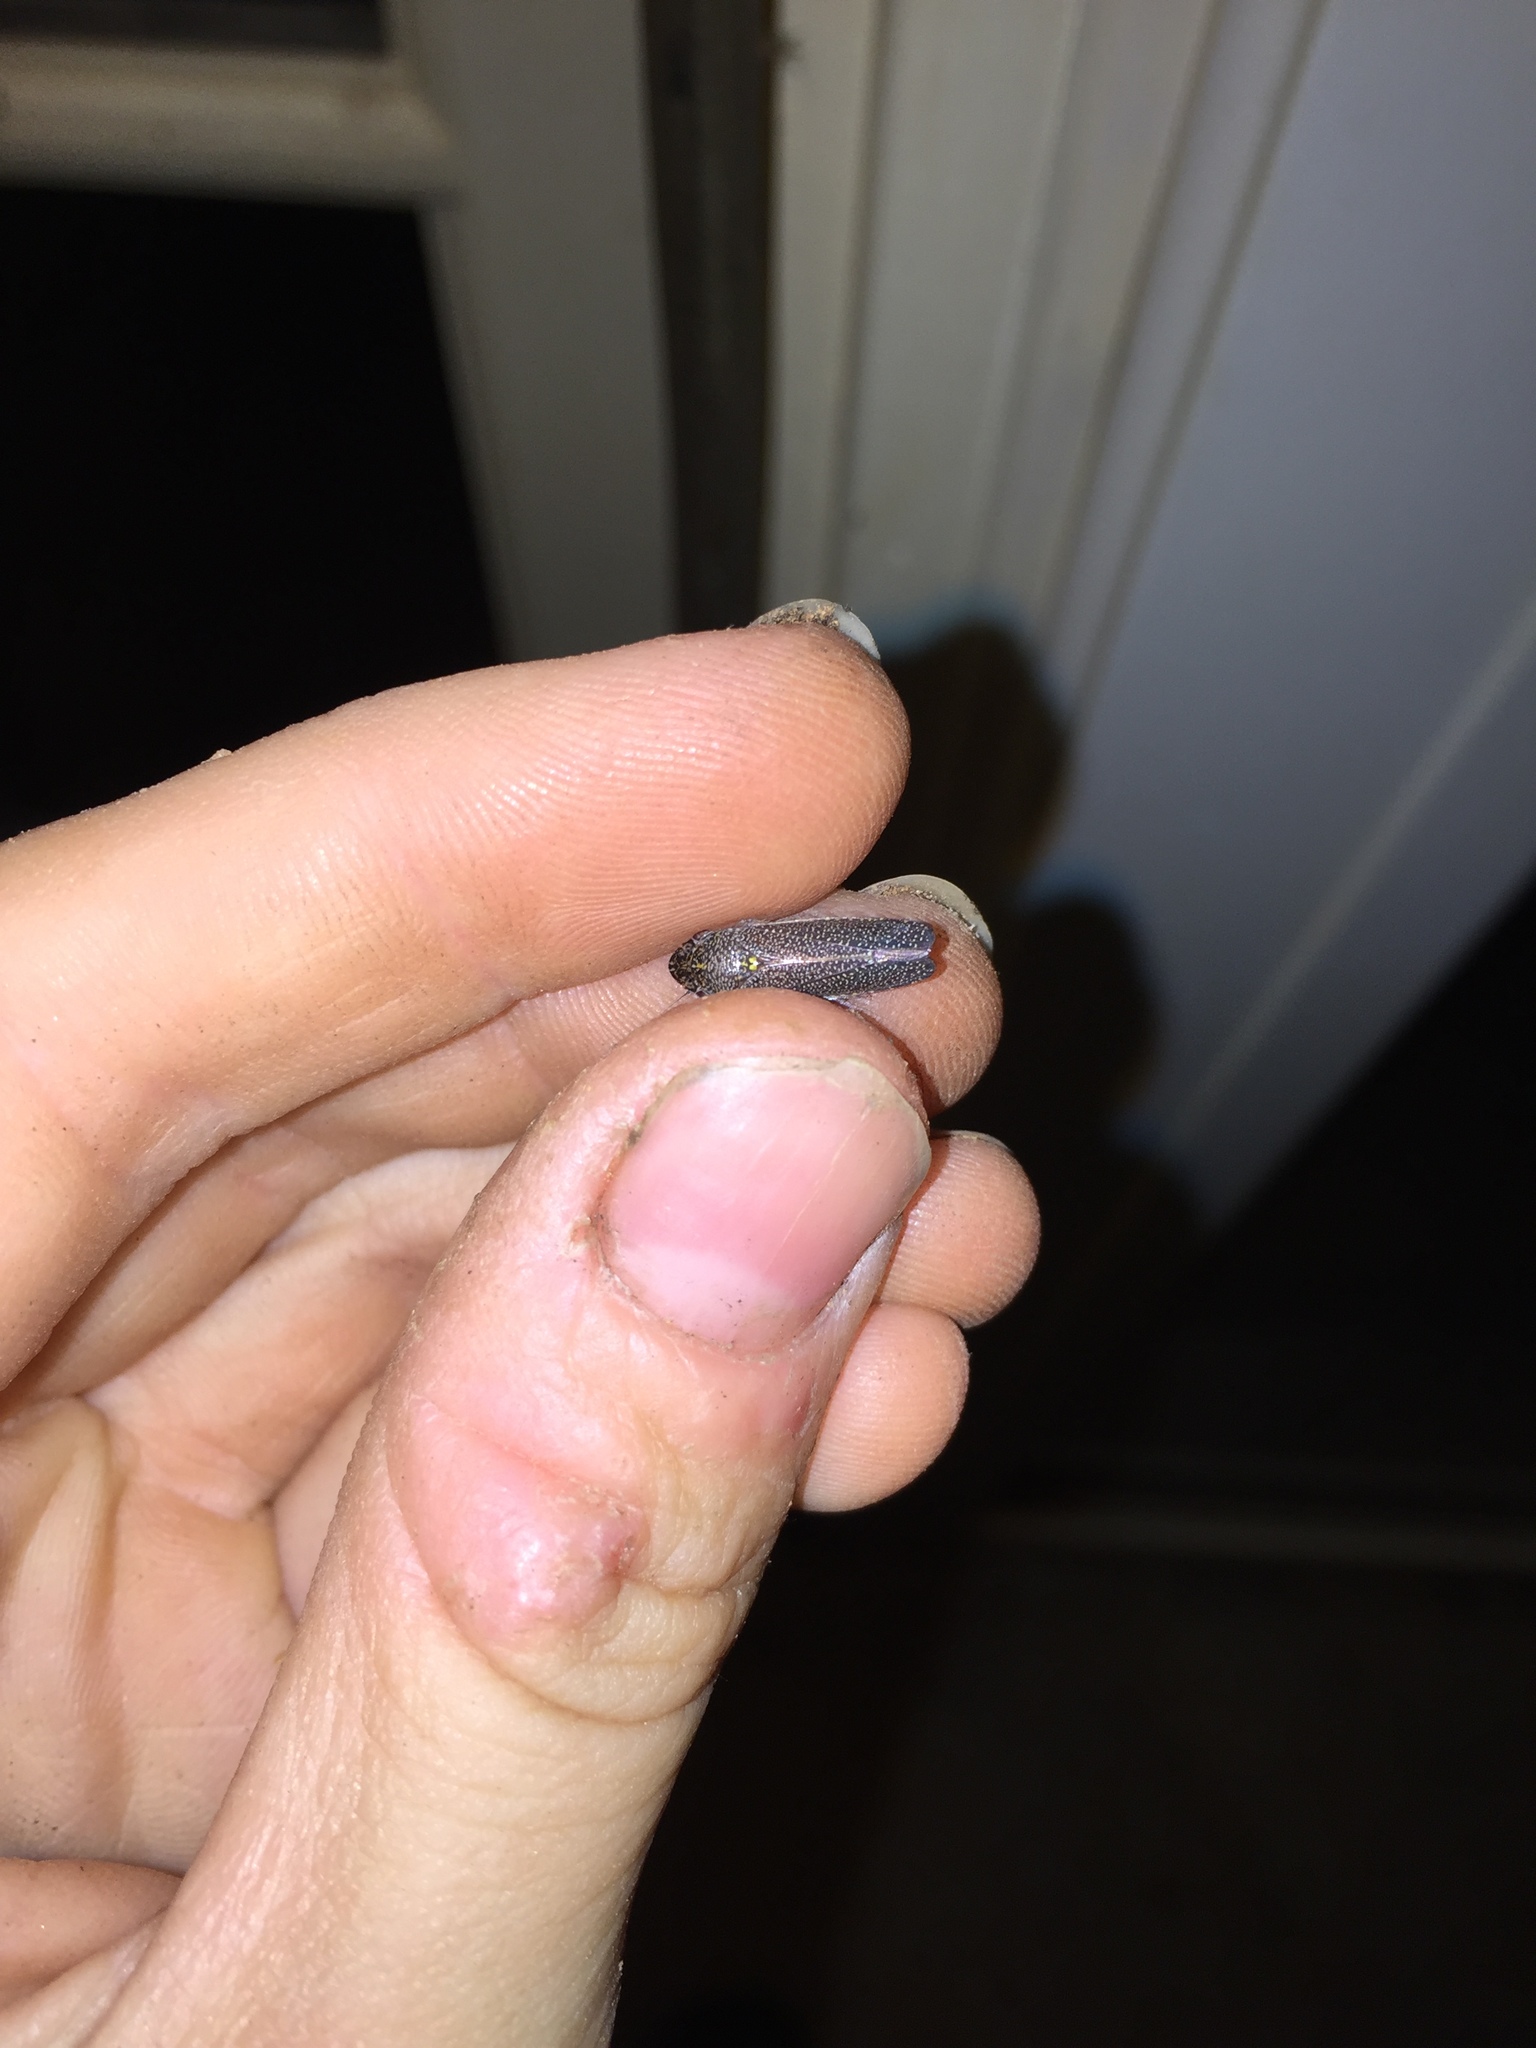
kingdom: Animalia
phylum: Arthropoda
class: Insecta
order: Hemiptera
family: Cicadellidae
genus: Paraulacizes
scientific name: Paraulacizes irrorata
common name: Speckled sharpshooter
